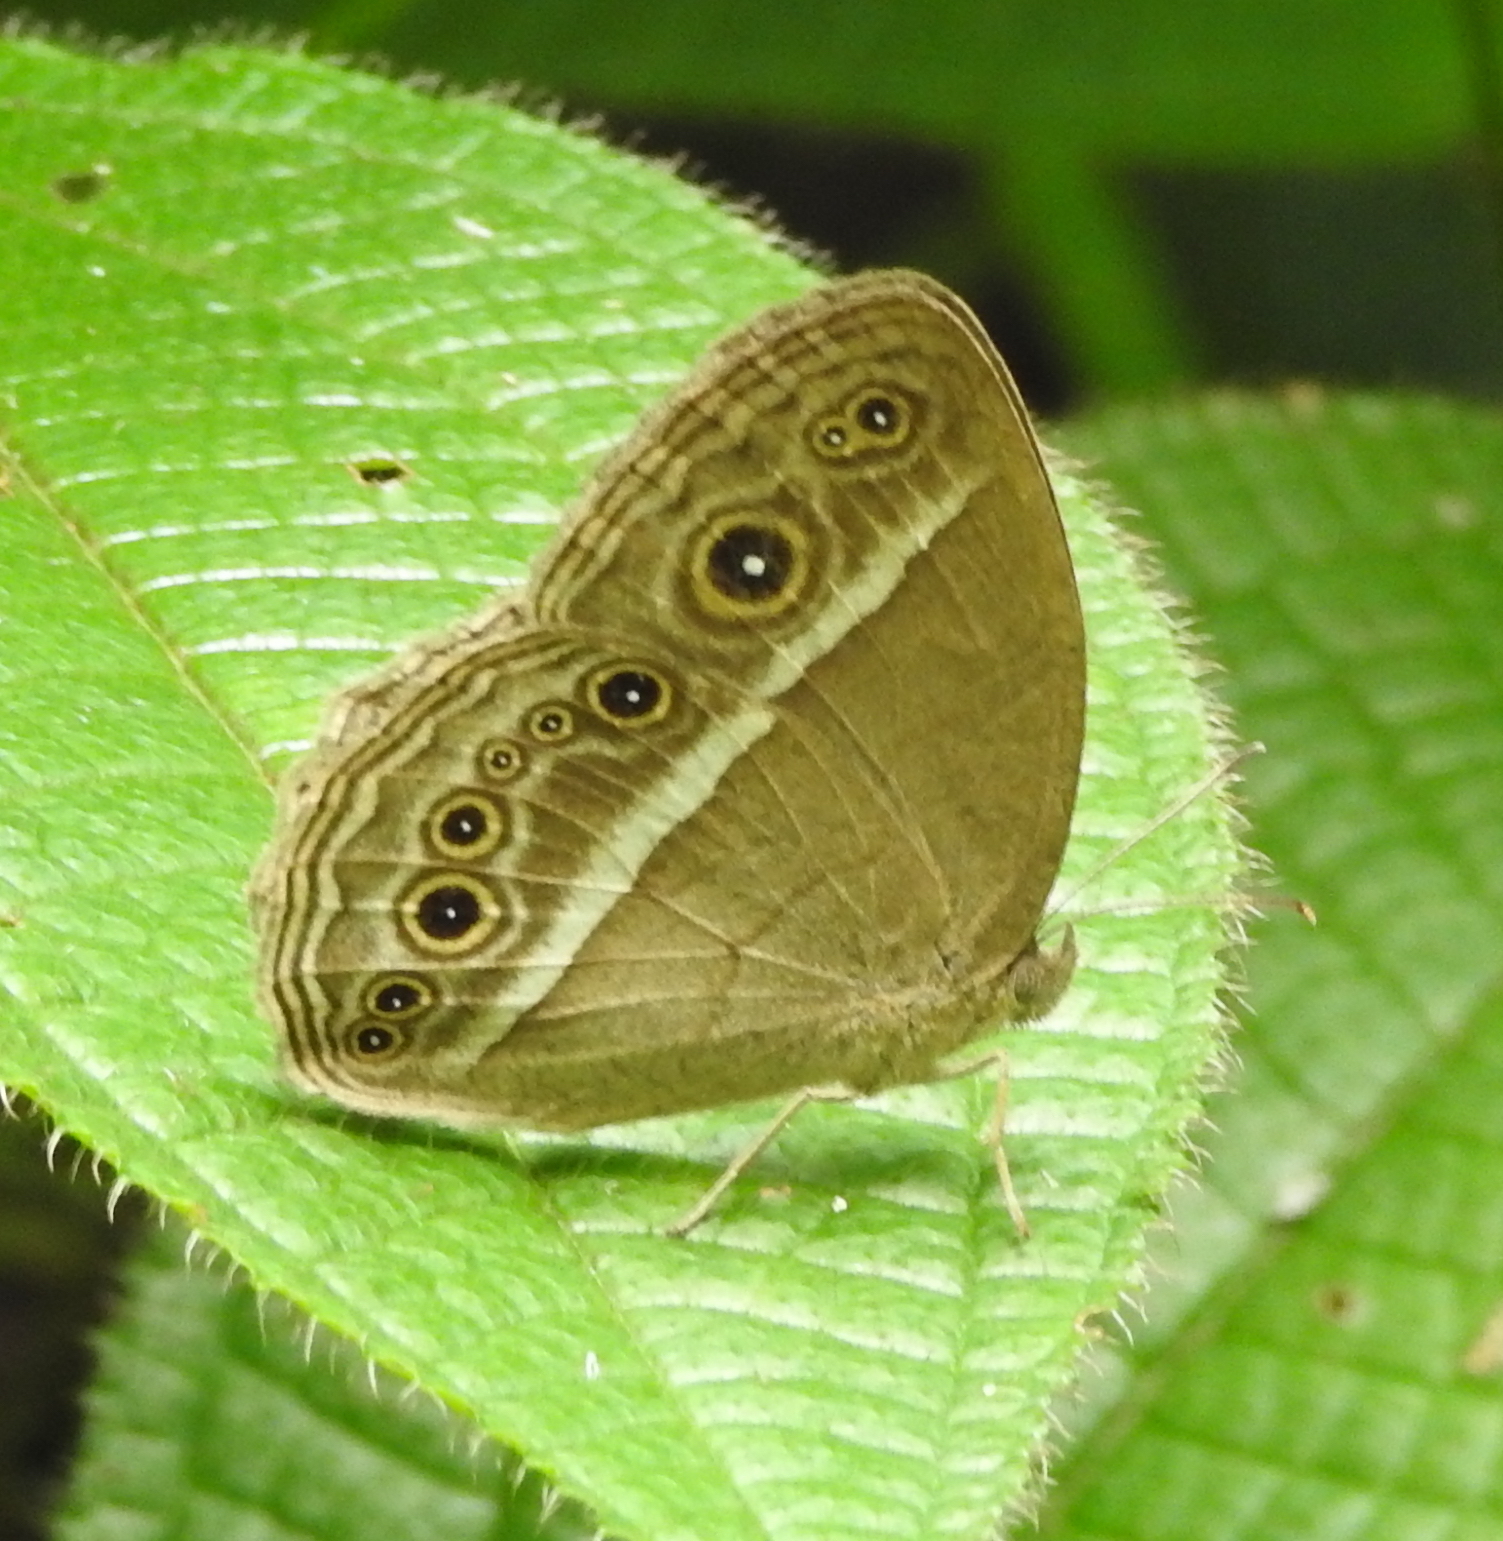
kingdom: Animalia
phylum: Arthropoda
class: Insecta
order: Lepidoptera
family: Nymphalidae
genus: Mycalesis
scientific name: Mycalesis visala
